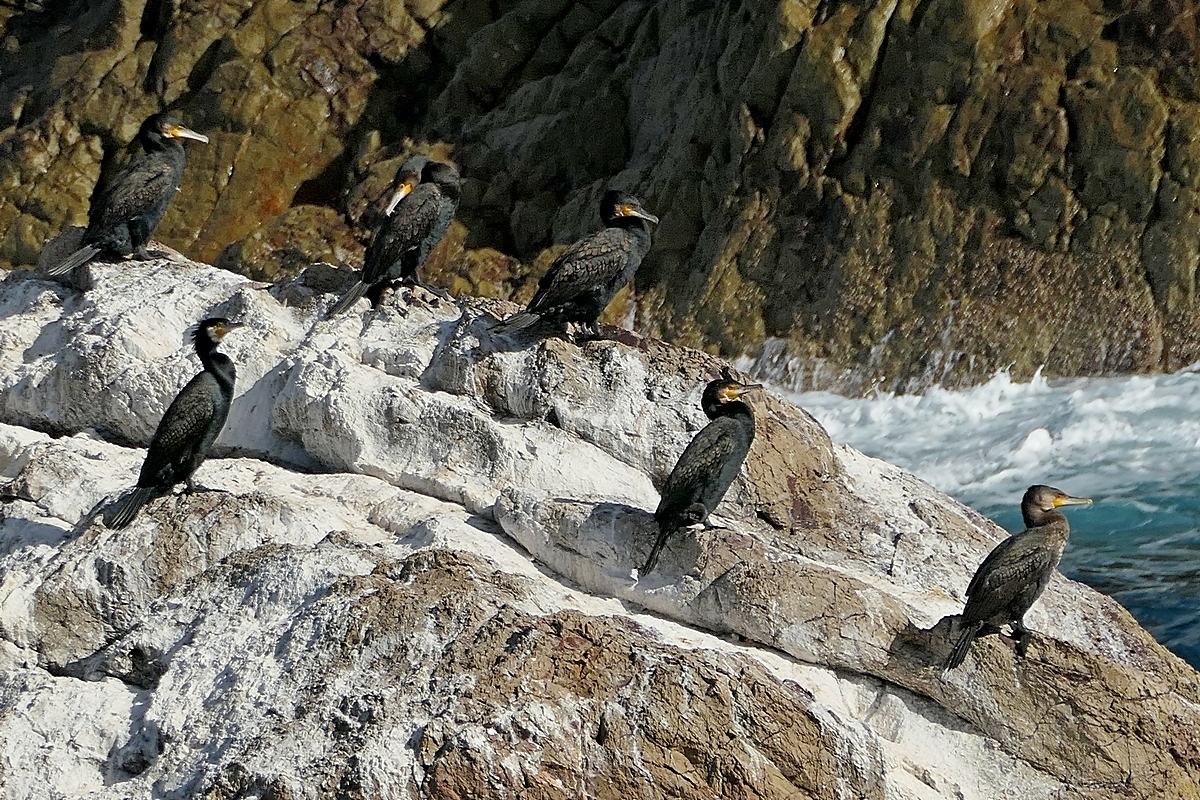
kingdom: Animalia
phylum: Chordata
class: Aves
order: Suliformes
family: Phalacrocoracidae
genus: Phalacrocorax
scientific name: Phalacrocorax carbo
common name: Great cormorant
